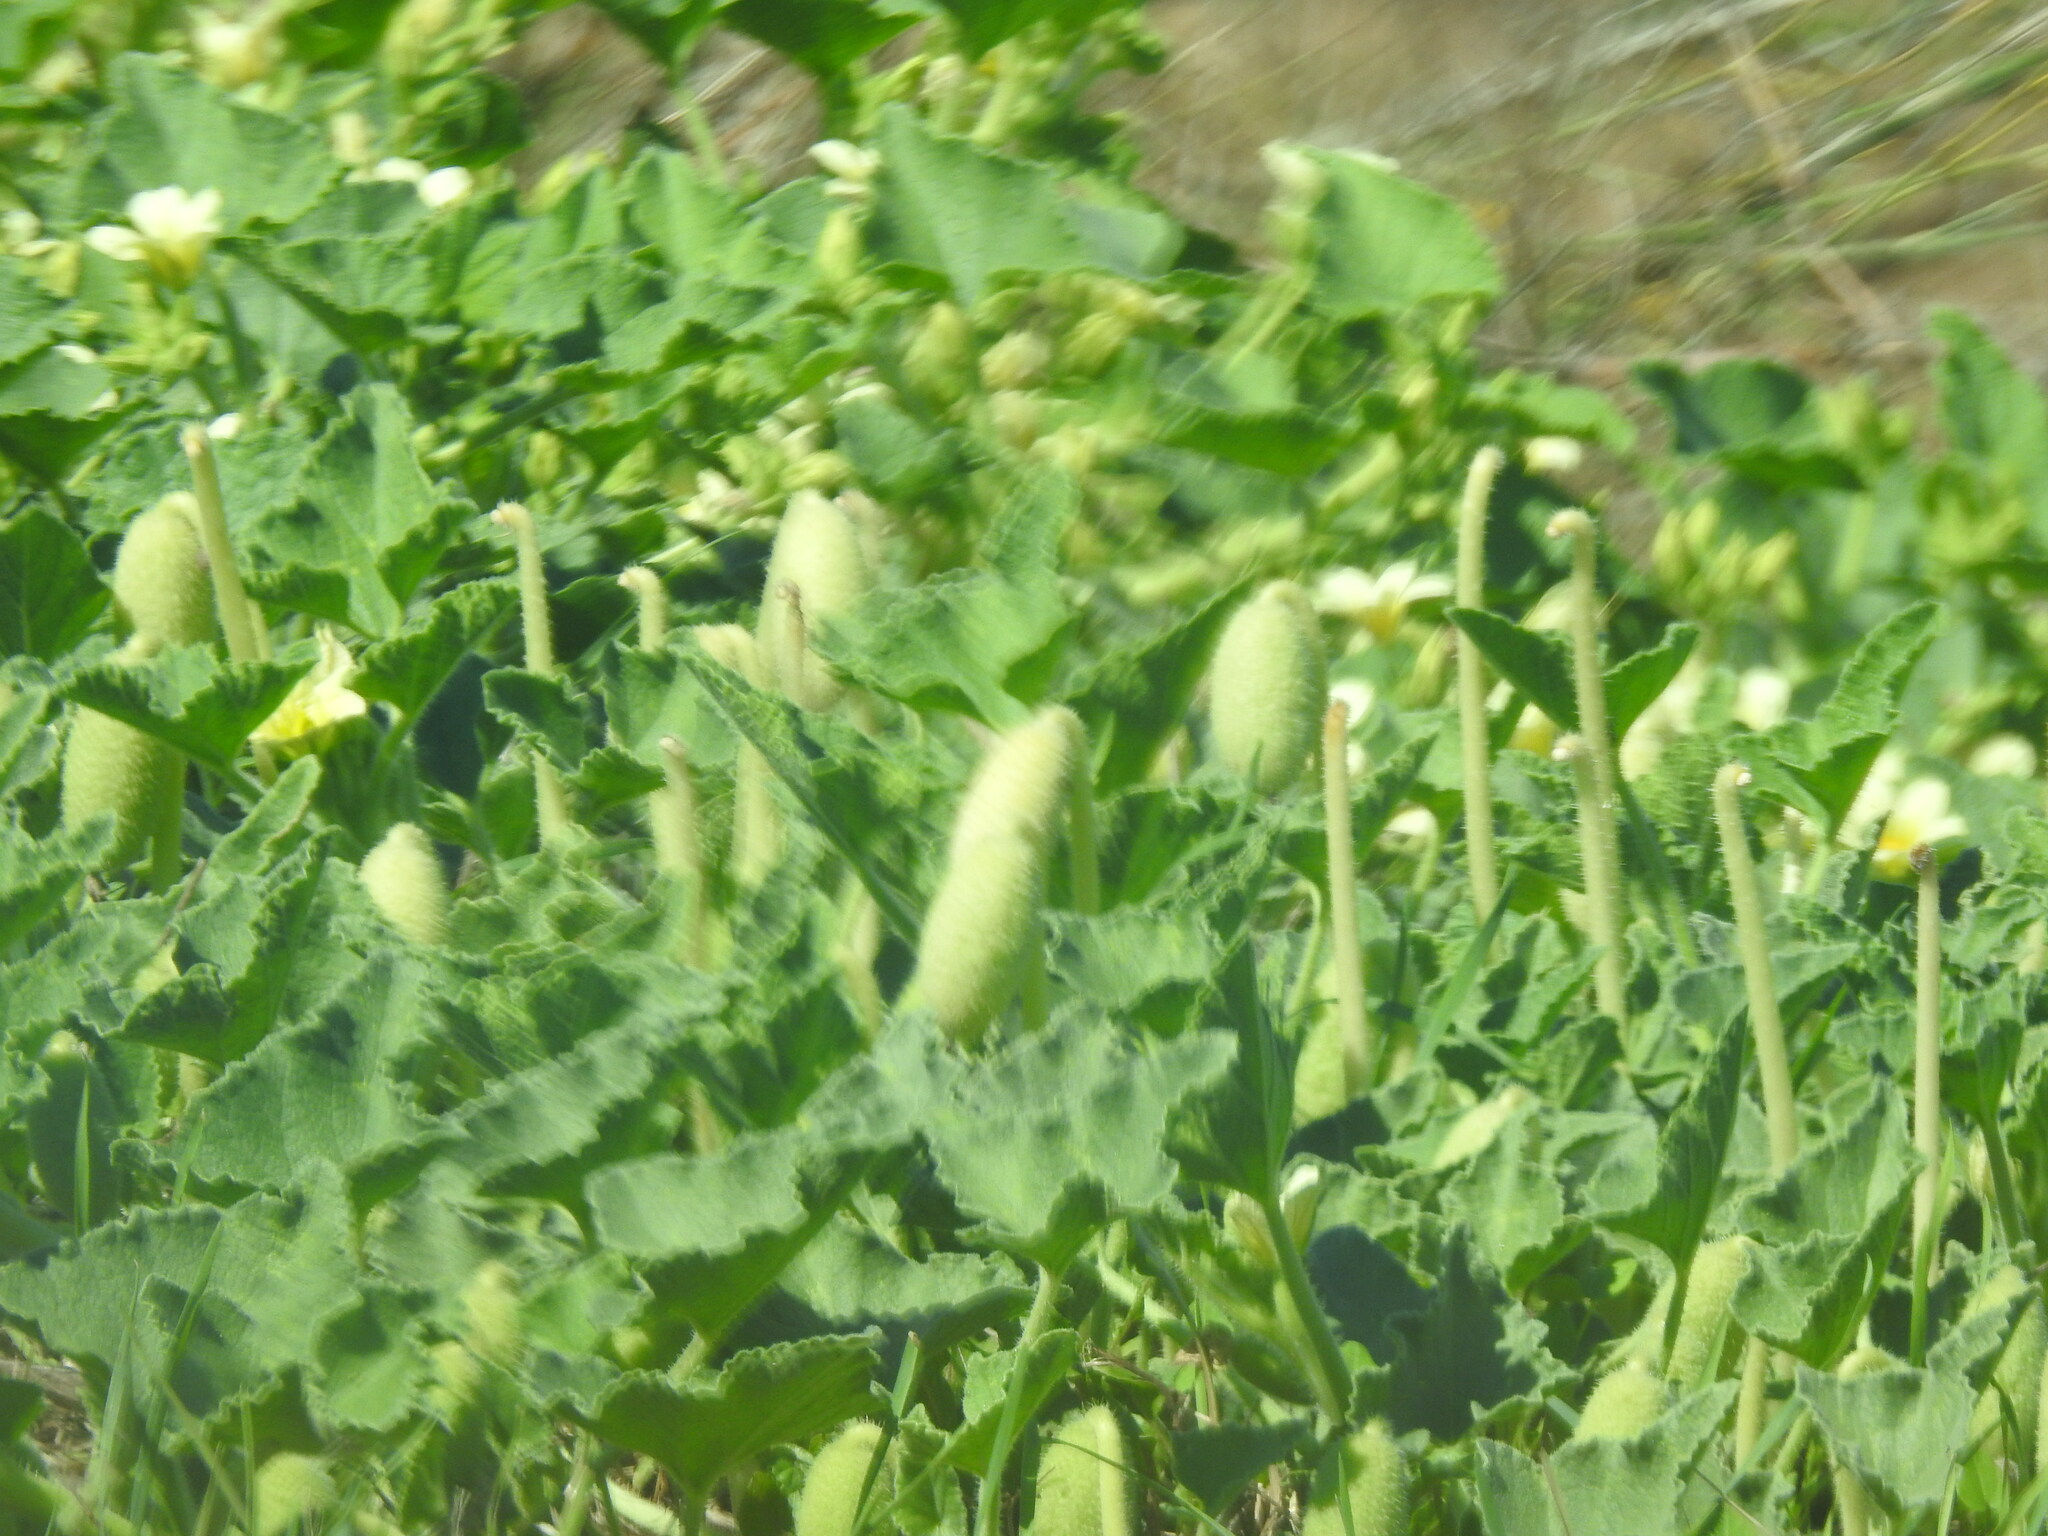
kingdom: Plantae
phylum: Tracheophyta
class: Magnoliopsida
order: Cucurbitales
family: Cucurbitaceae
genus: Ecballium
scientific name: Ecballium elaterium
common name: Squirting cucumber
